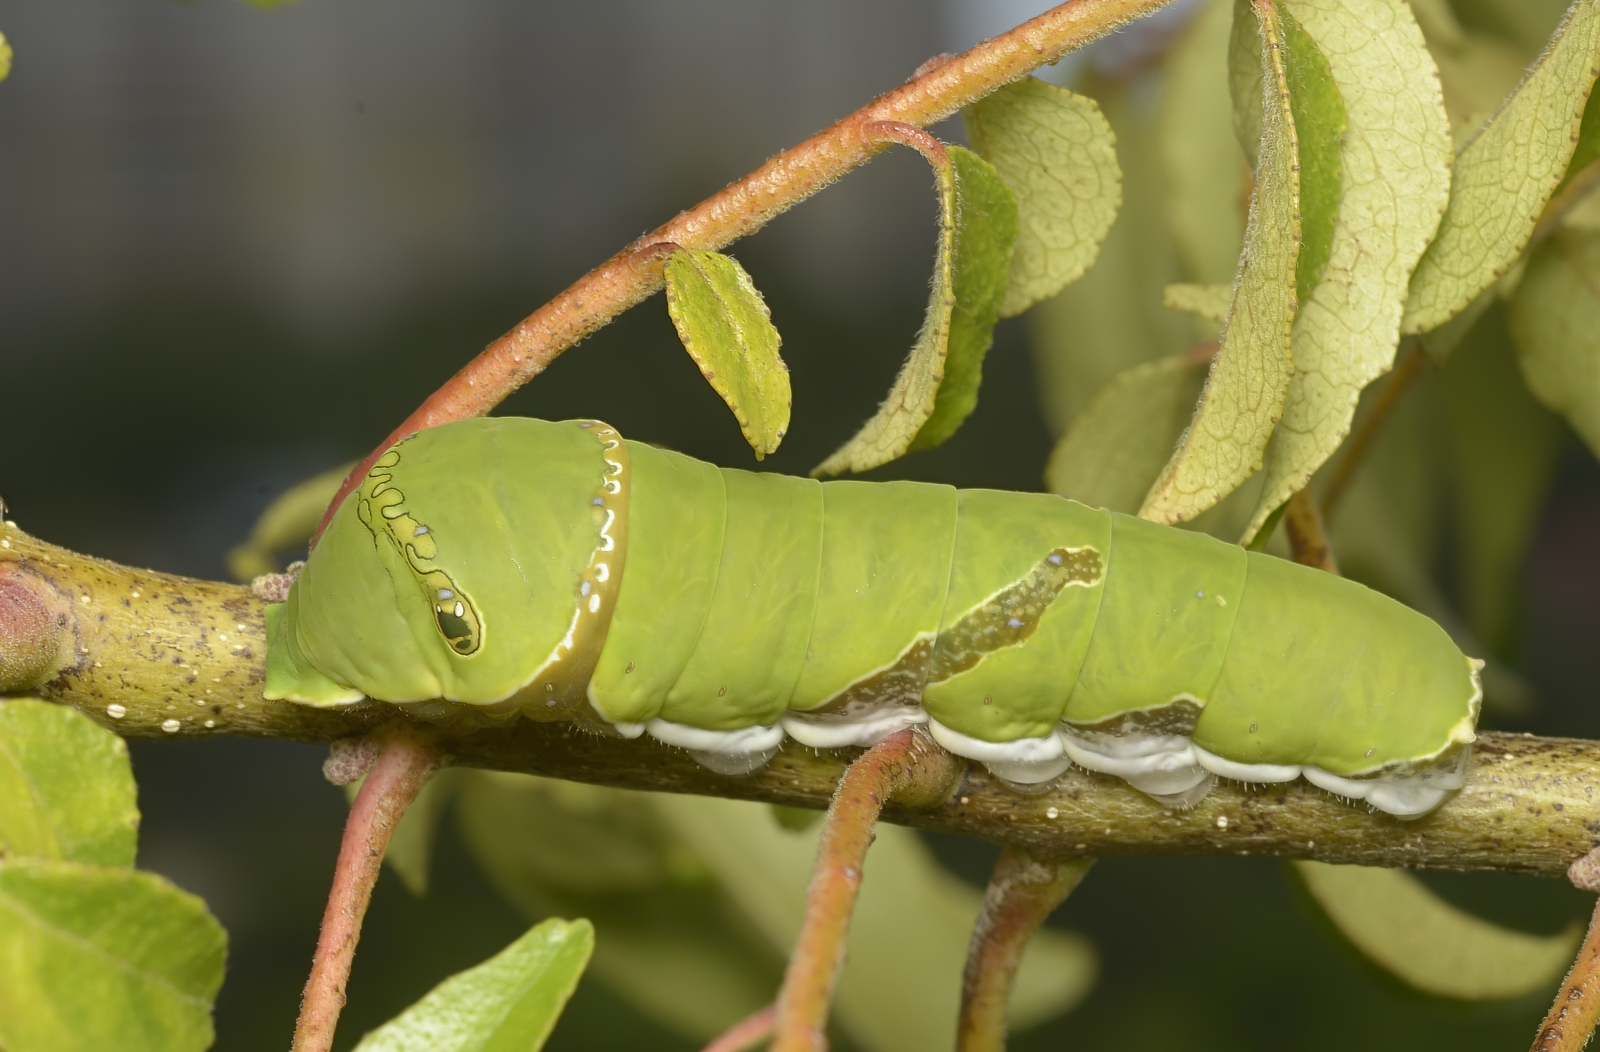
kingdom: Animalia
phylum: Arthropoda
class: Insecta
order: Lepidoptera
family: Papilionidae
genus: Papilio
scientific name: Papilio polytes
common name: Common mormon
